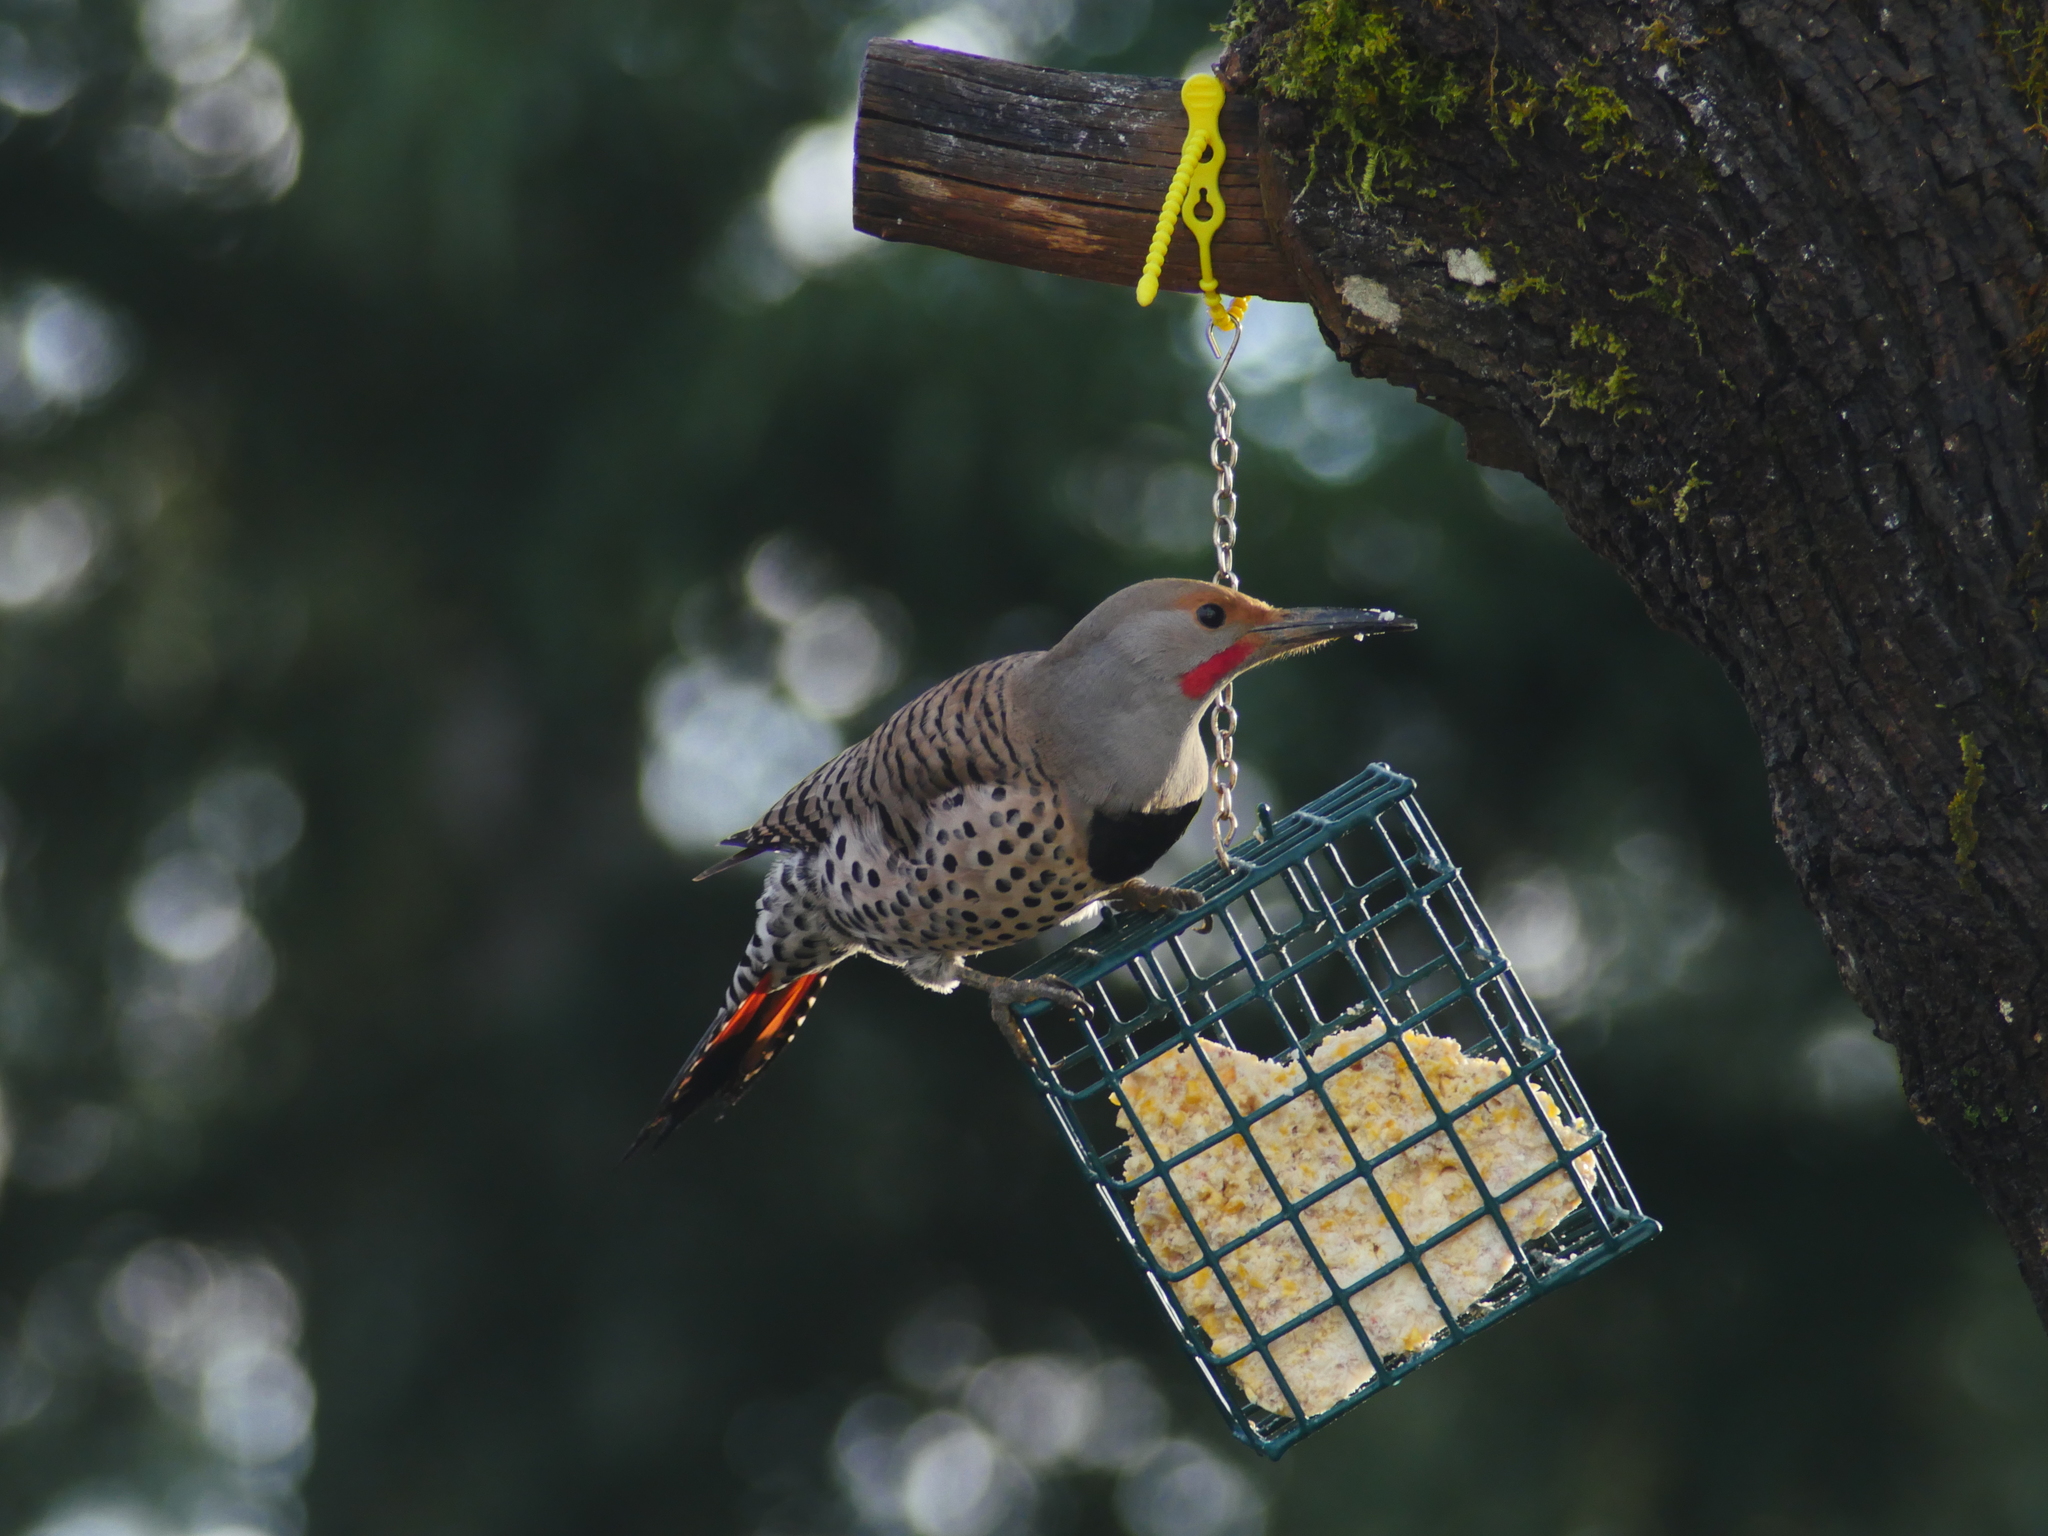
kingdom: Animalia
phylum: Chordata
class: Aves
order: Piciformes
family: Picidae
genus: Colaptes
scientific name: Colaptes auratus
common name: Northern flicker
